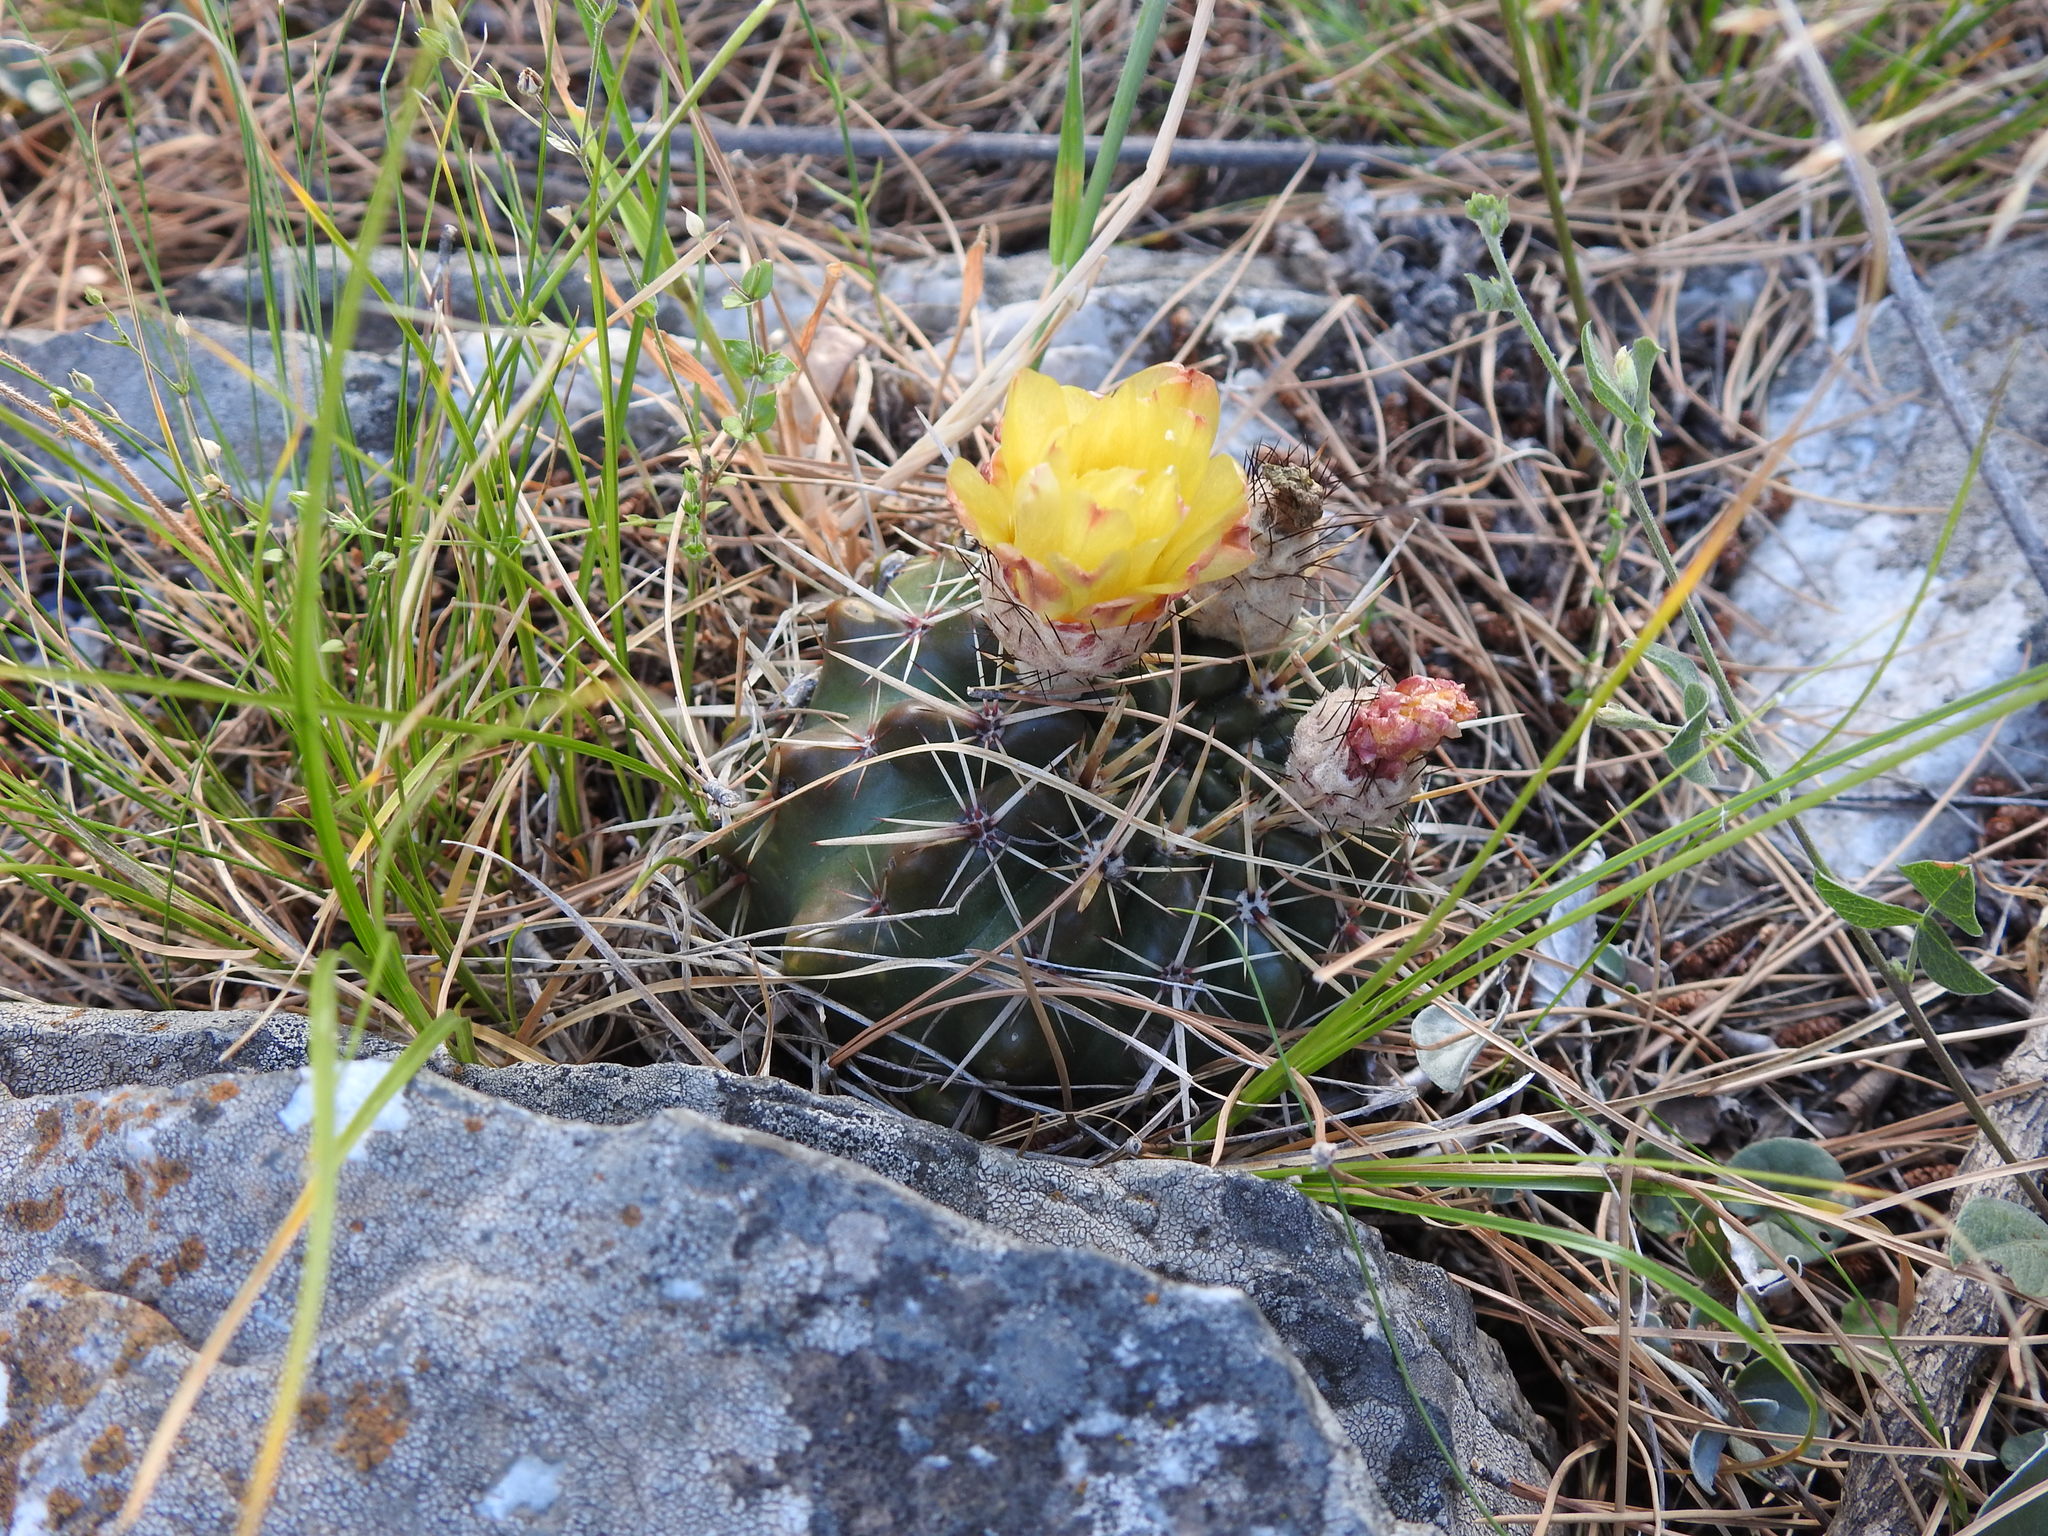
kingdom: Plantae
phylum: Tracheophyta
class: Magnoliopsida
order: Caryophyllales
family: Cactaceae
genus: Parodia
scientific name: Parodia mammulosa
